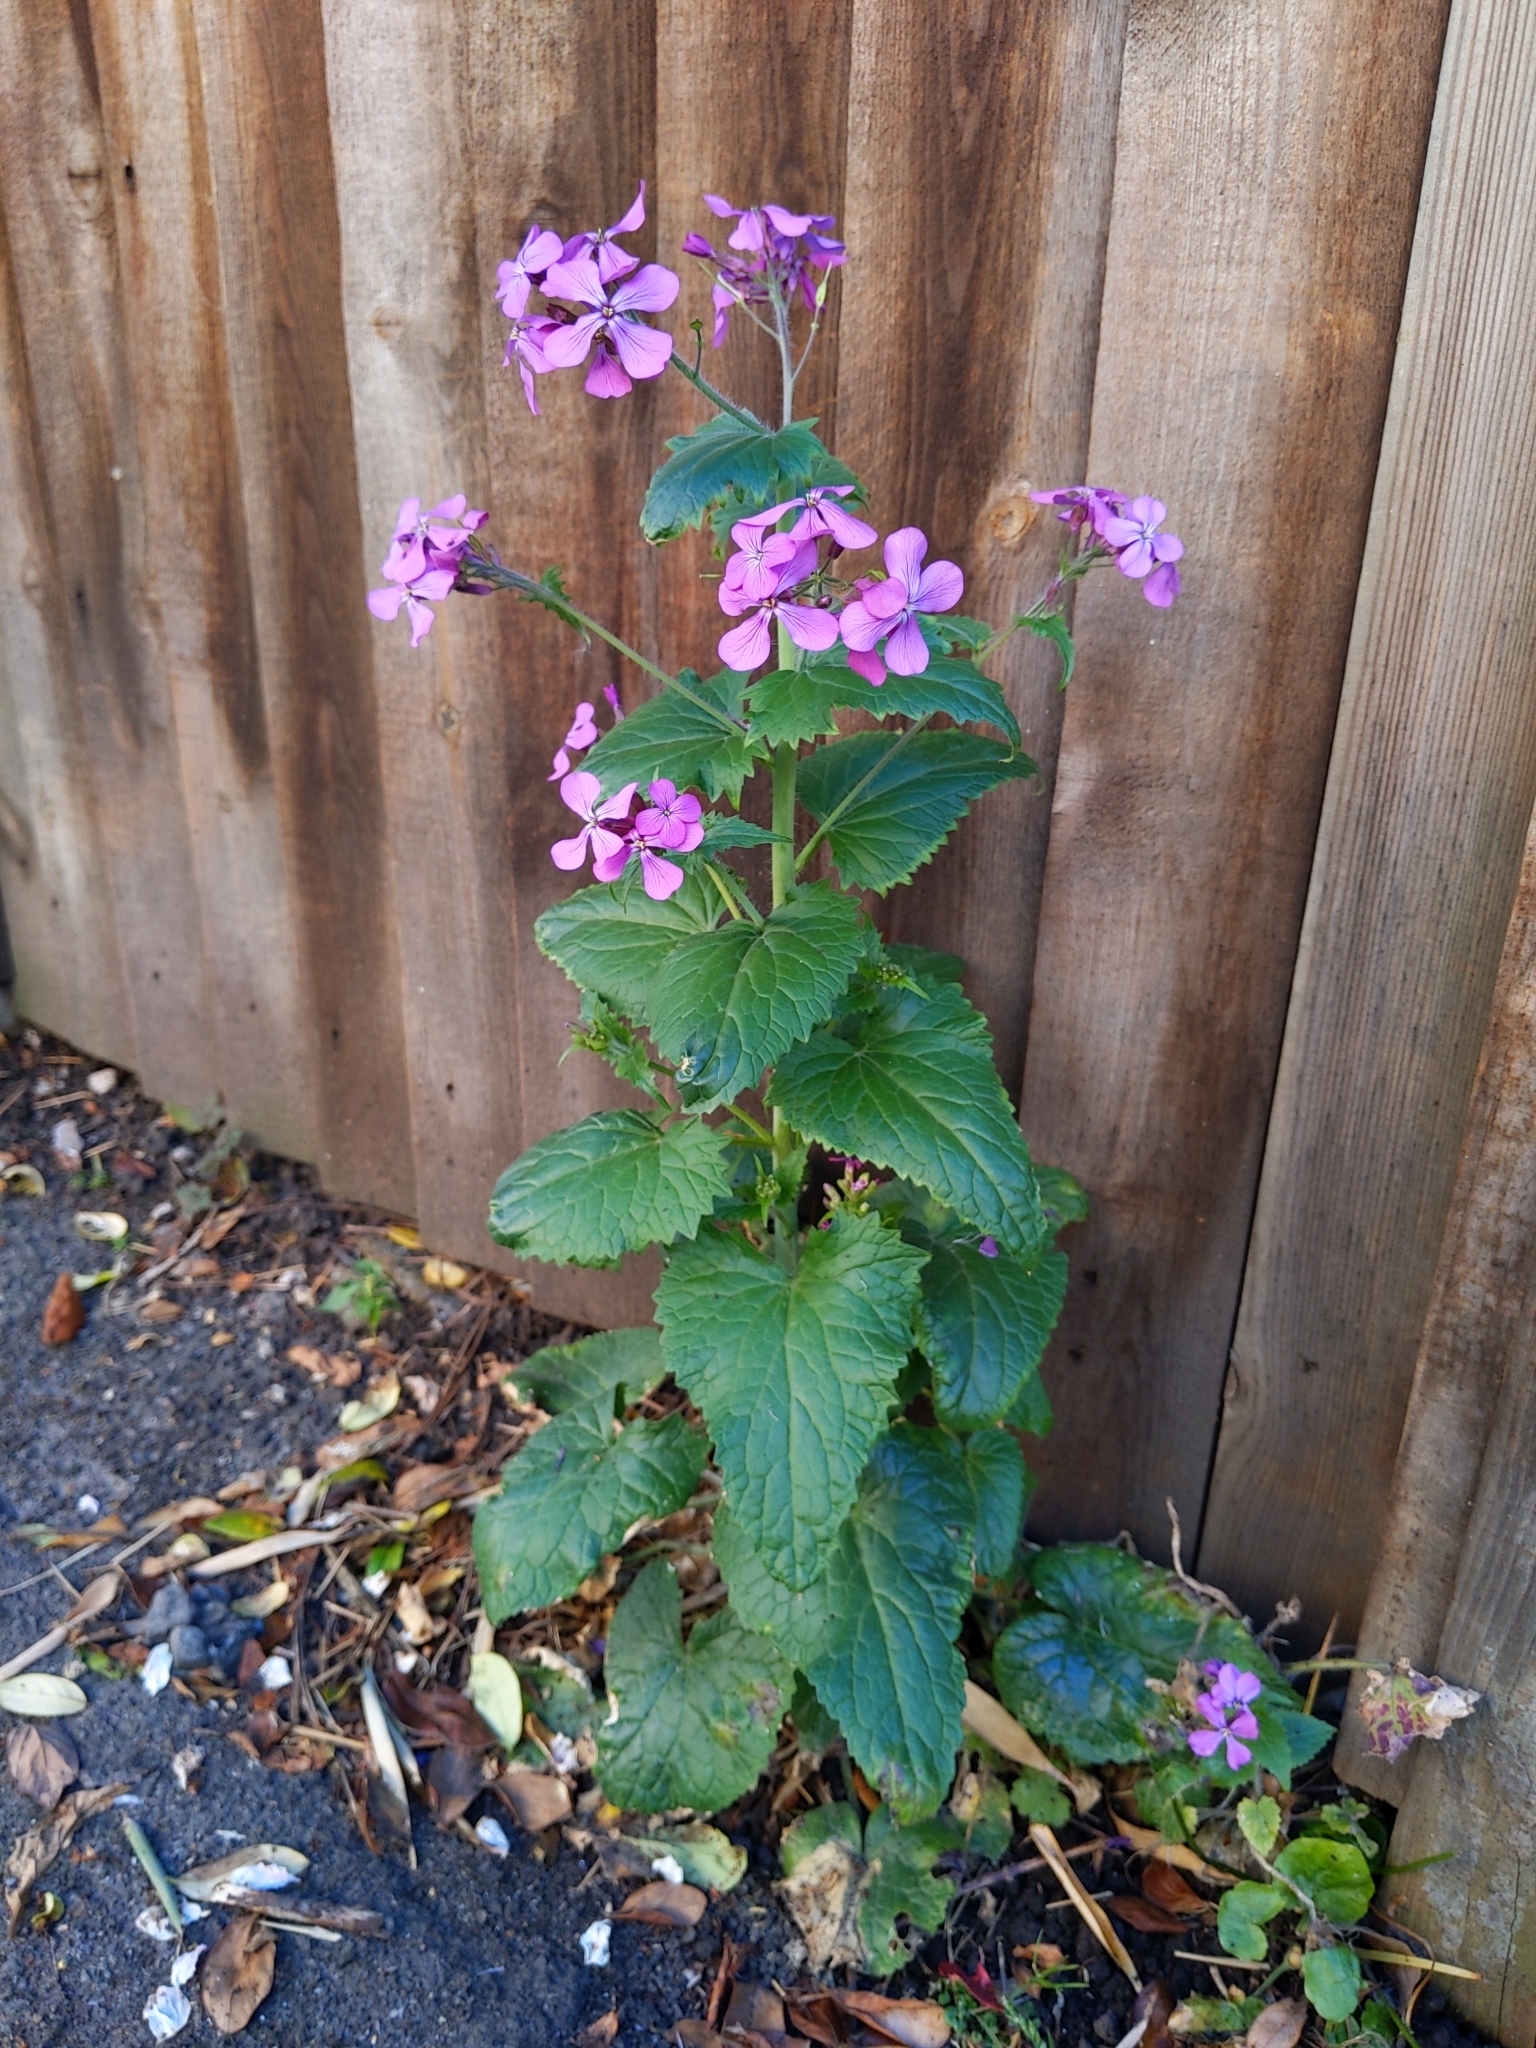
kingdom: Plantae
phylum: Tracheophyta
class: Magnoliopsida
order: Brassicales
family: Brassicaceae
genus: Lunaria
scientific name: Lunaria annua
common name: Honesty
